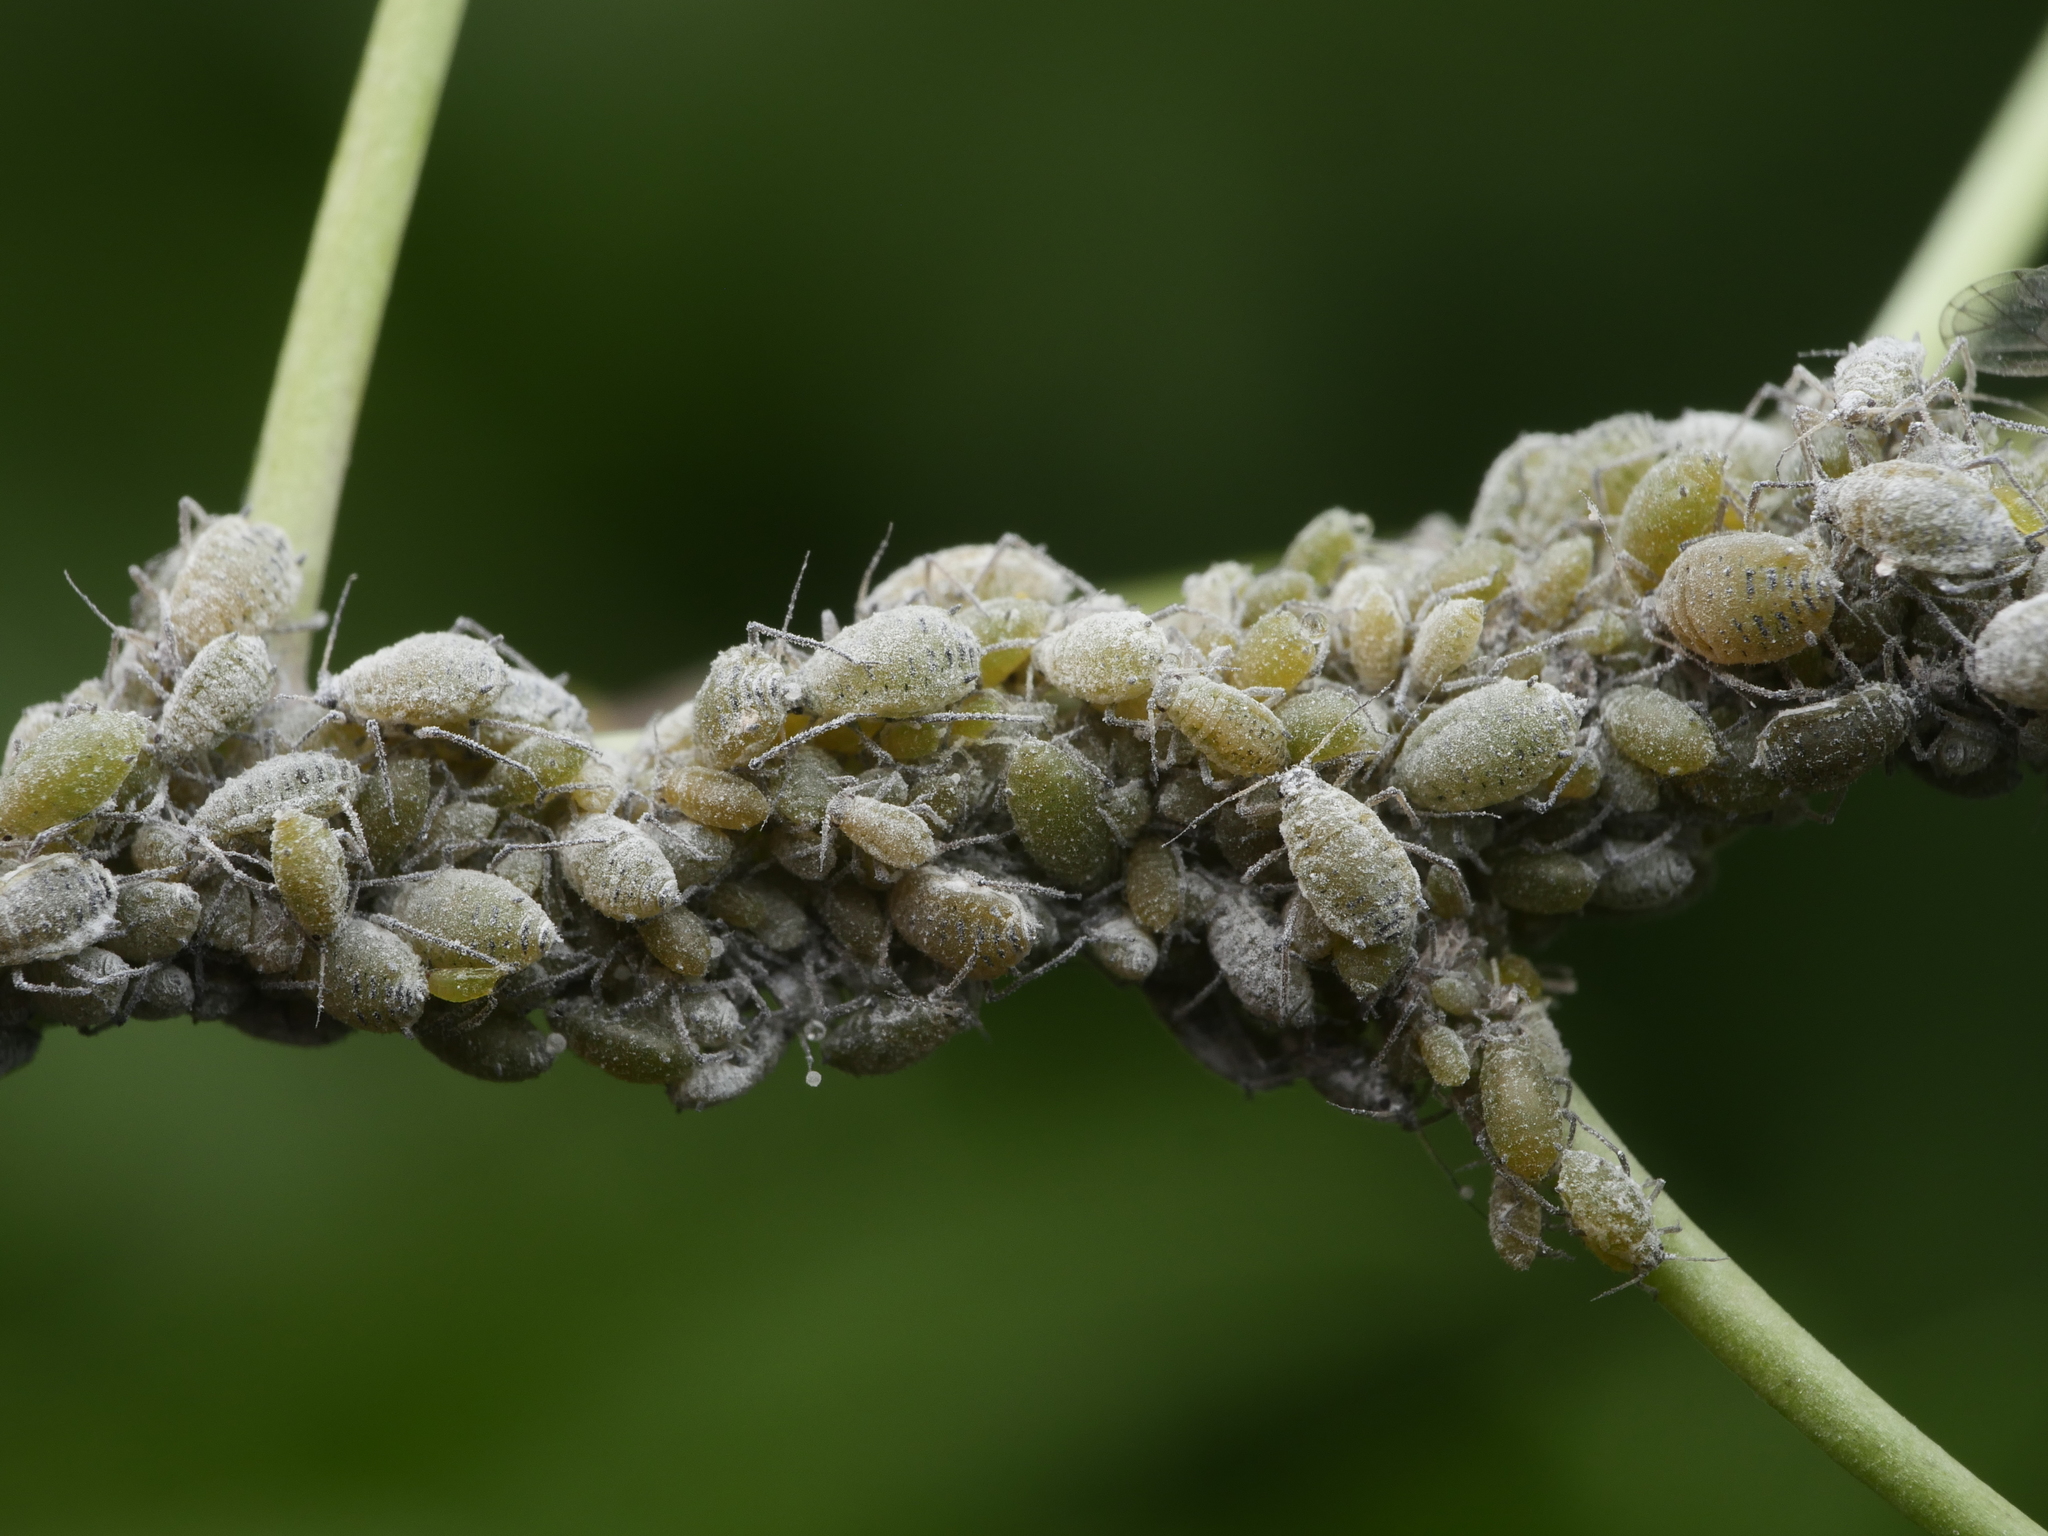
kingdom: Animalia
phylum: Arthropoda
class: Insecta
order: Hemiptera
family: Aphididae
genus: Brevicoryne
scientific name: Brevicoryne brassicae
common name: Cabbage aphid
